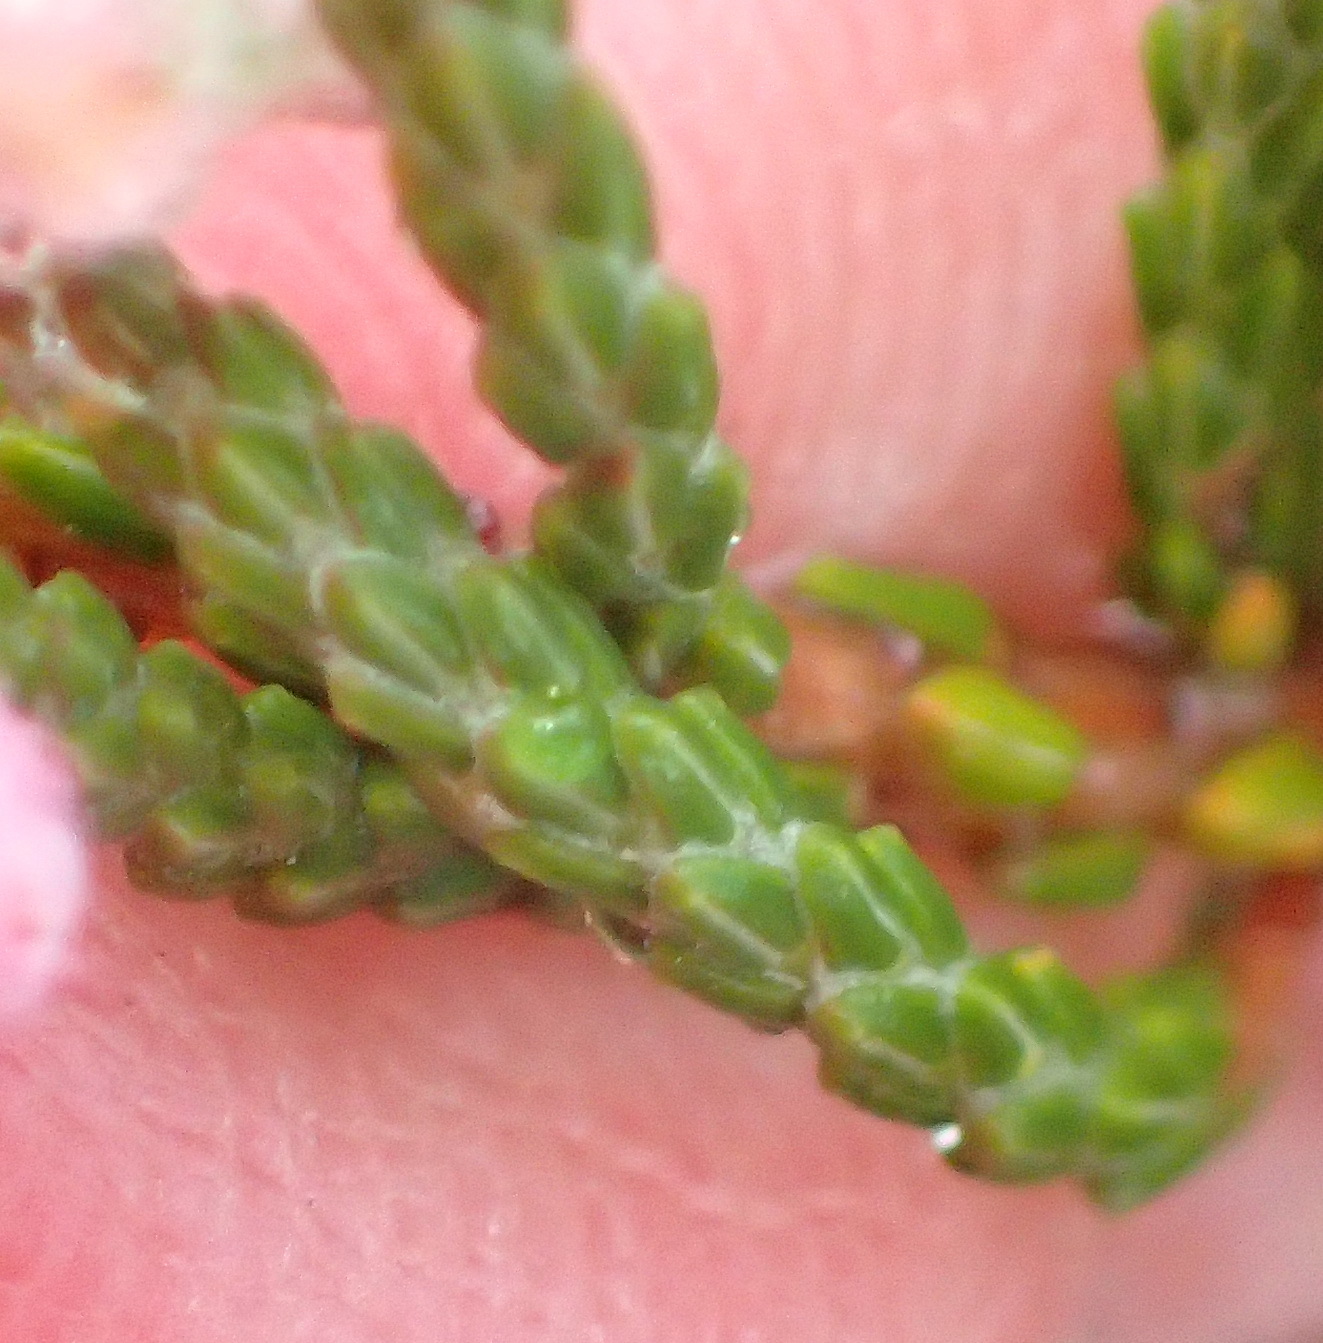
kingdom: Plantae
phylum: Tracheophyta
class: Magnoliopsida
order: Ericales
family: Ericaceae
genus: Erica
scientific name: Erica plumosa
